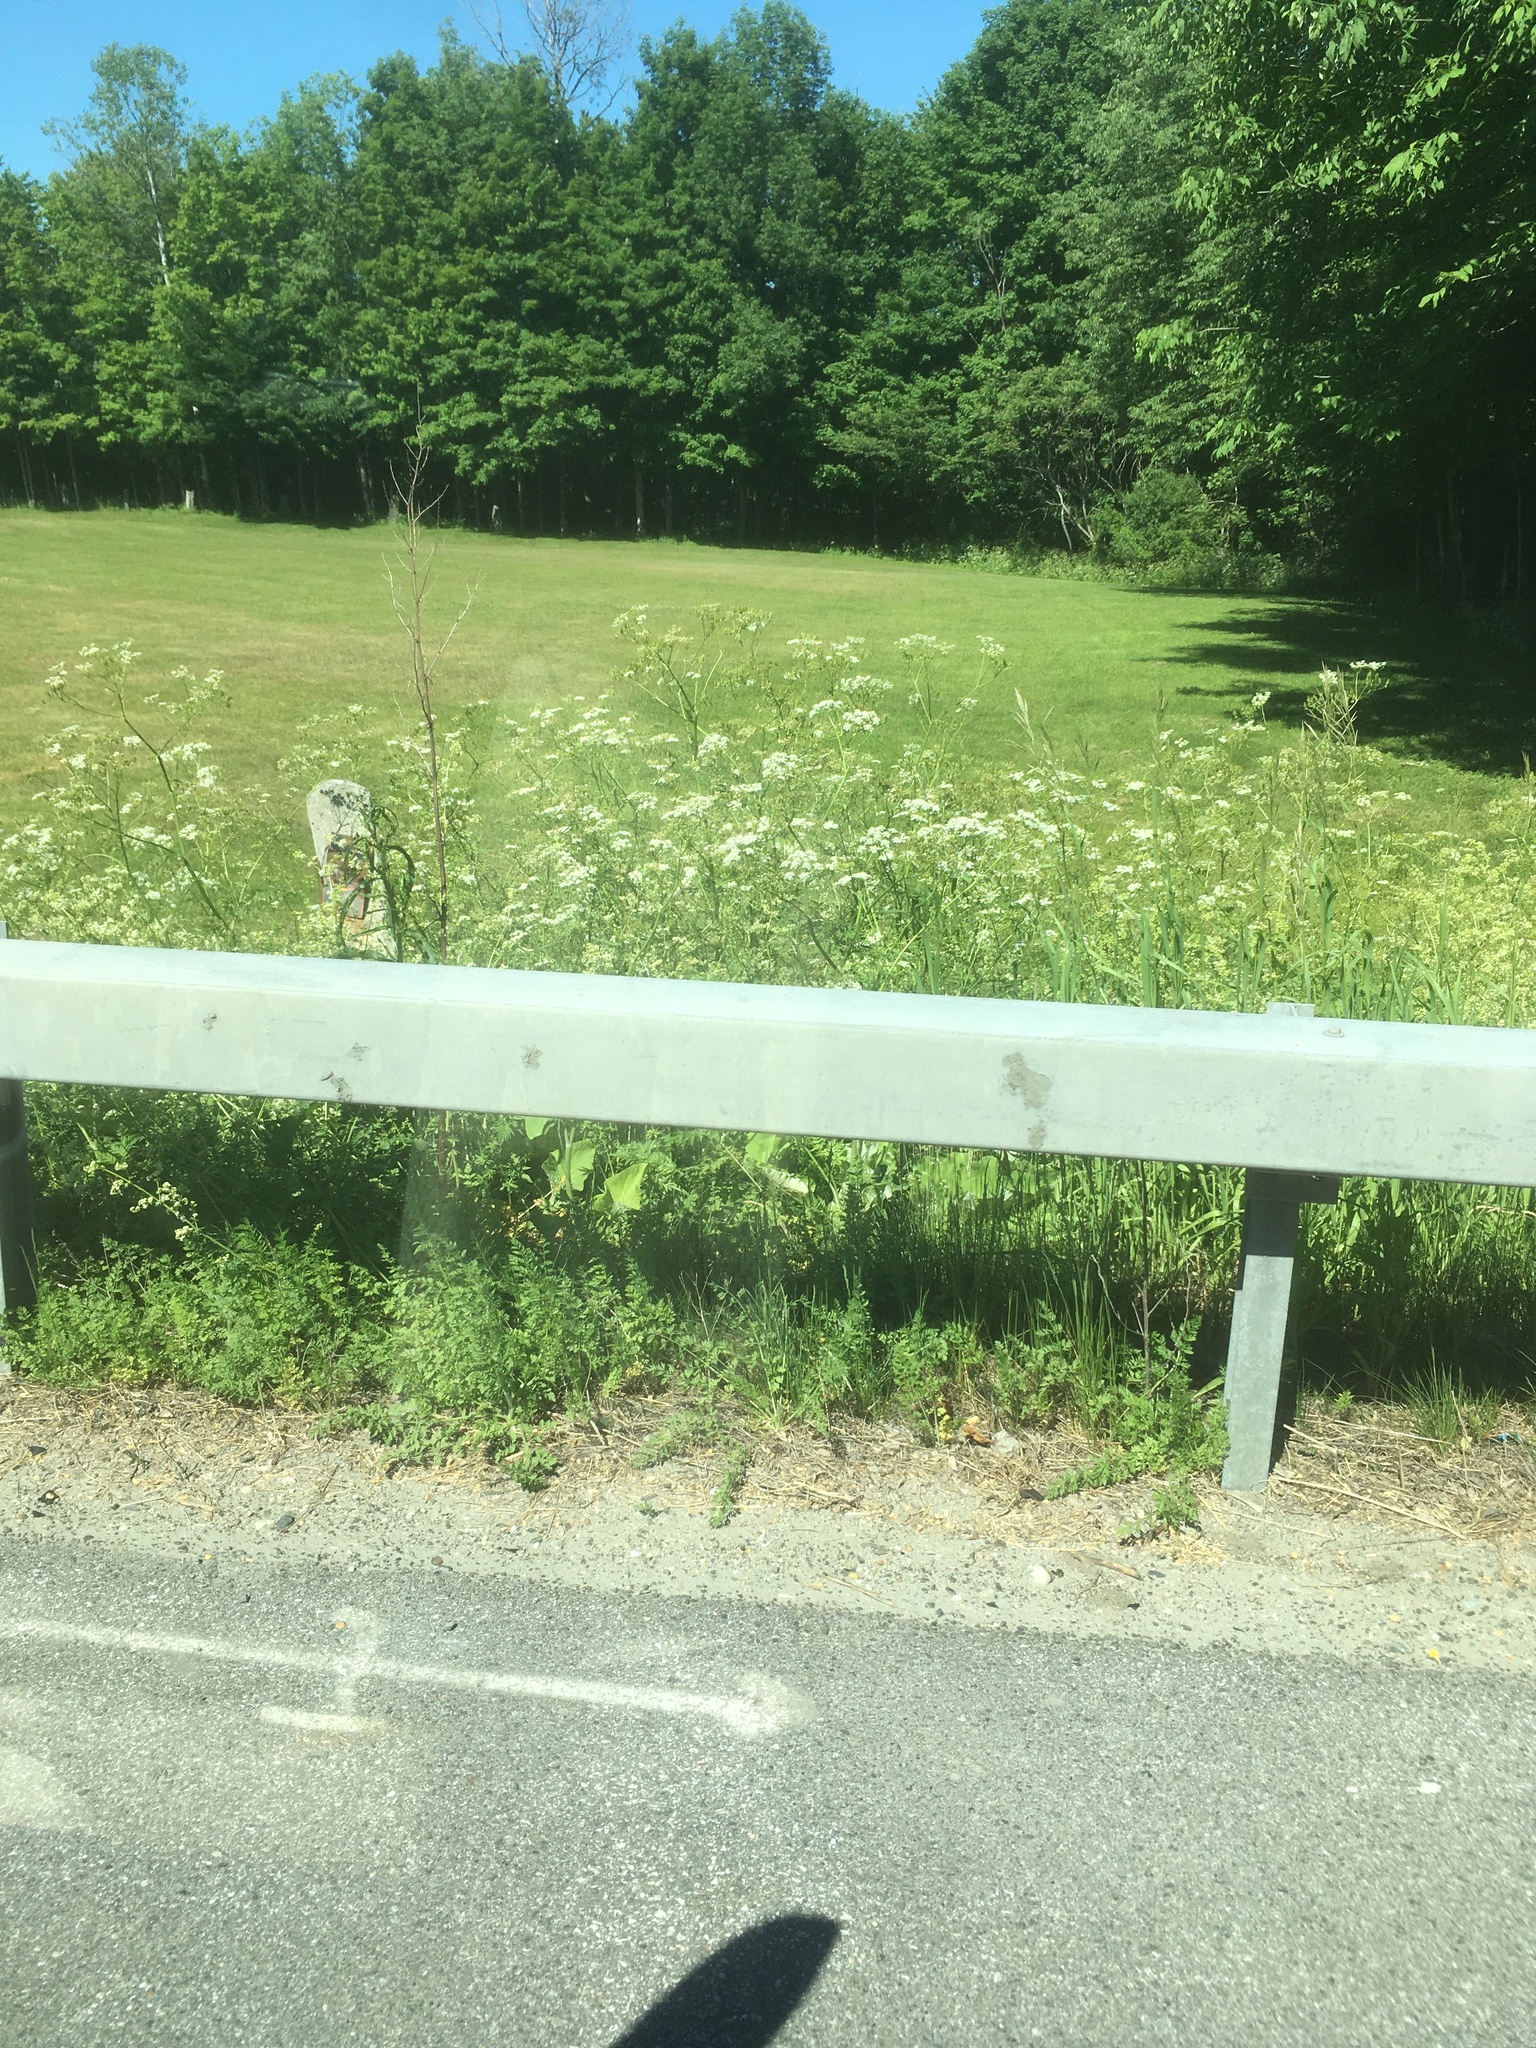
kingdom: Plantae
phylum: Tracheophyta
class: Magnoliopsida
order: Apiales
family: Apiaceae
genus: Anthriscus
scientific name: Anthriscus sylvestris
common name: Cow parsley
